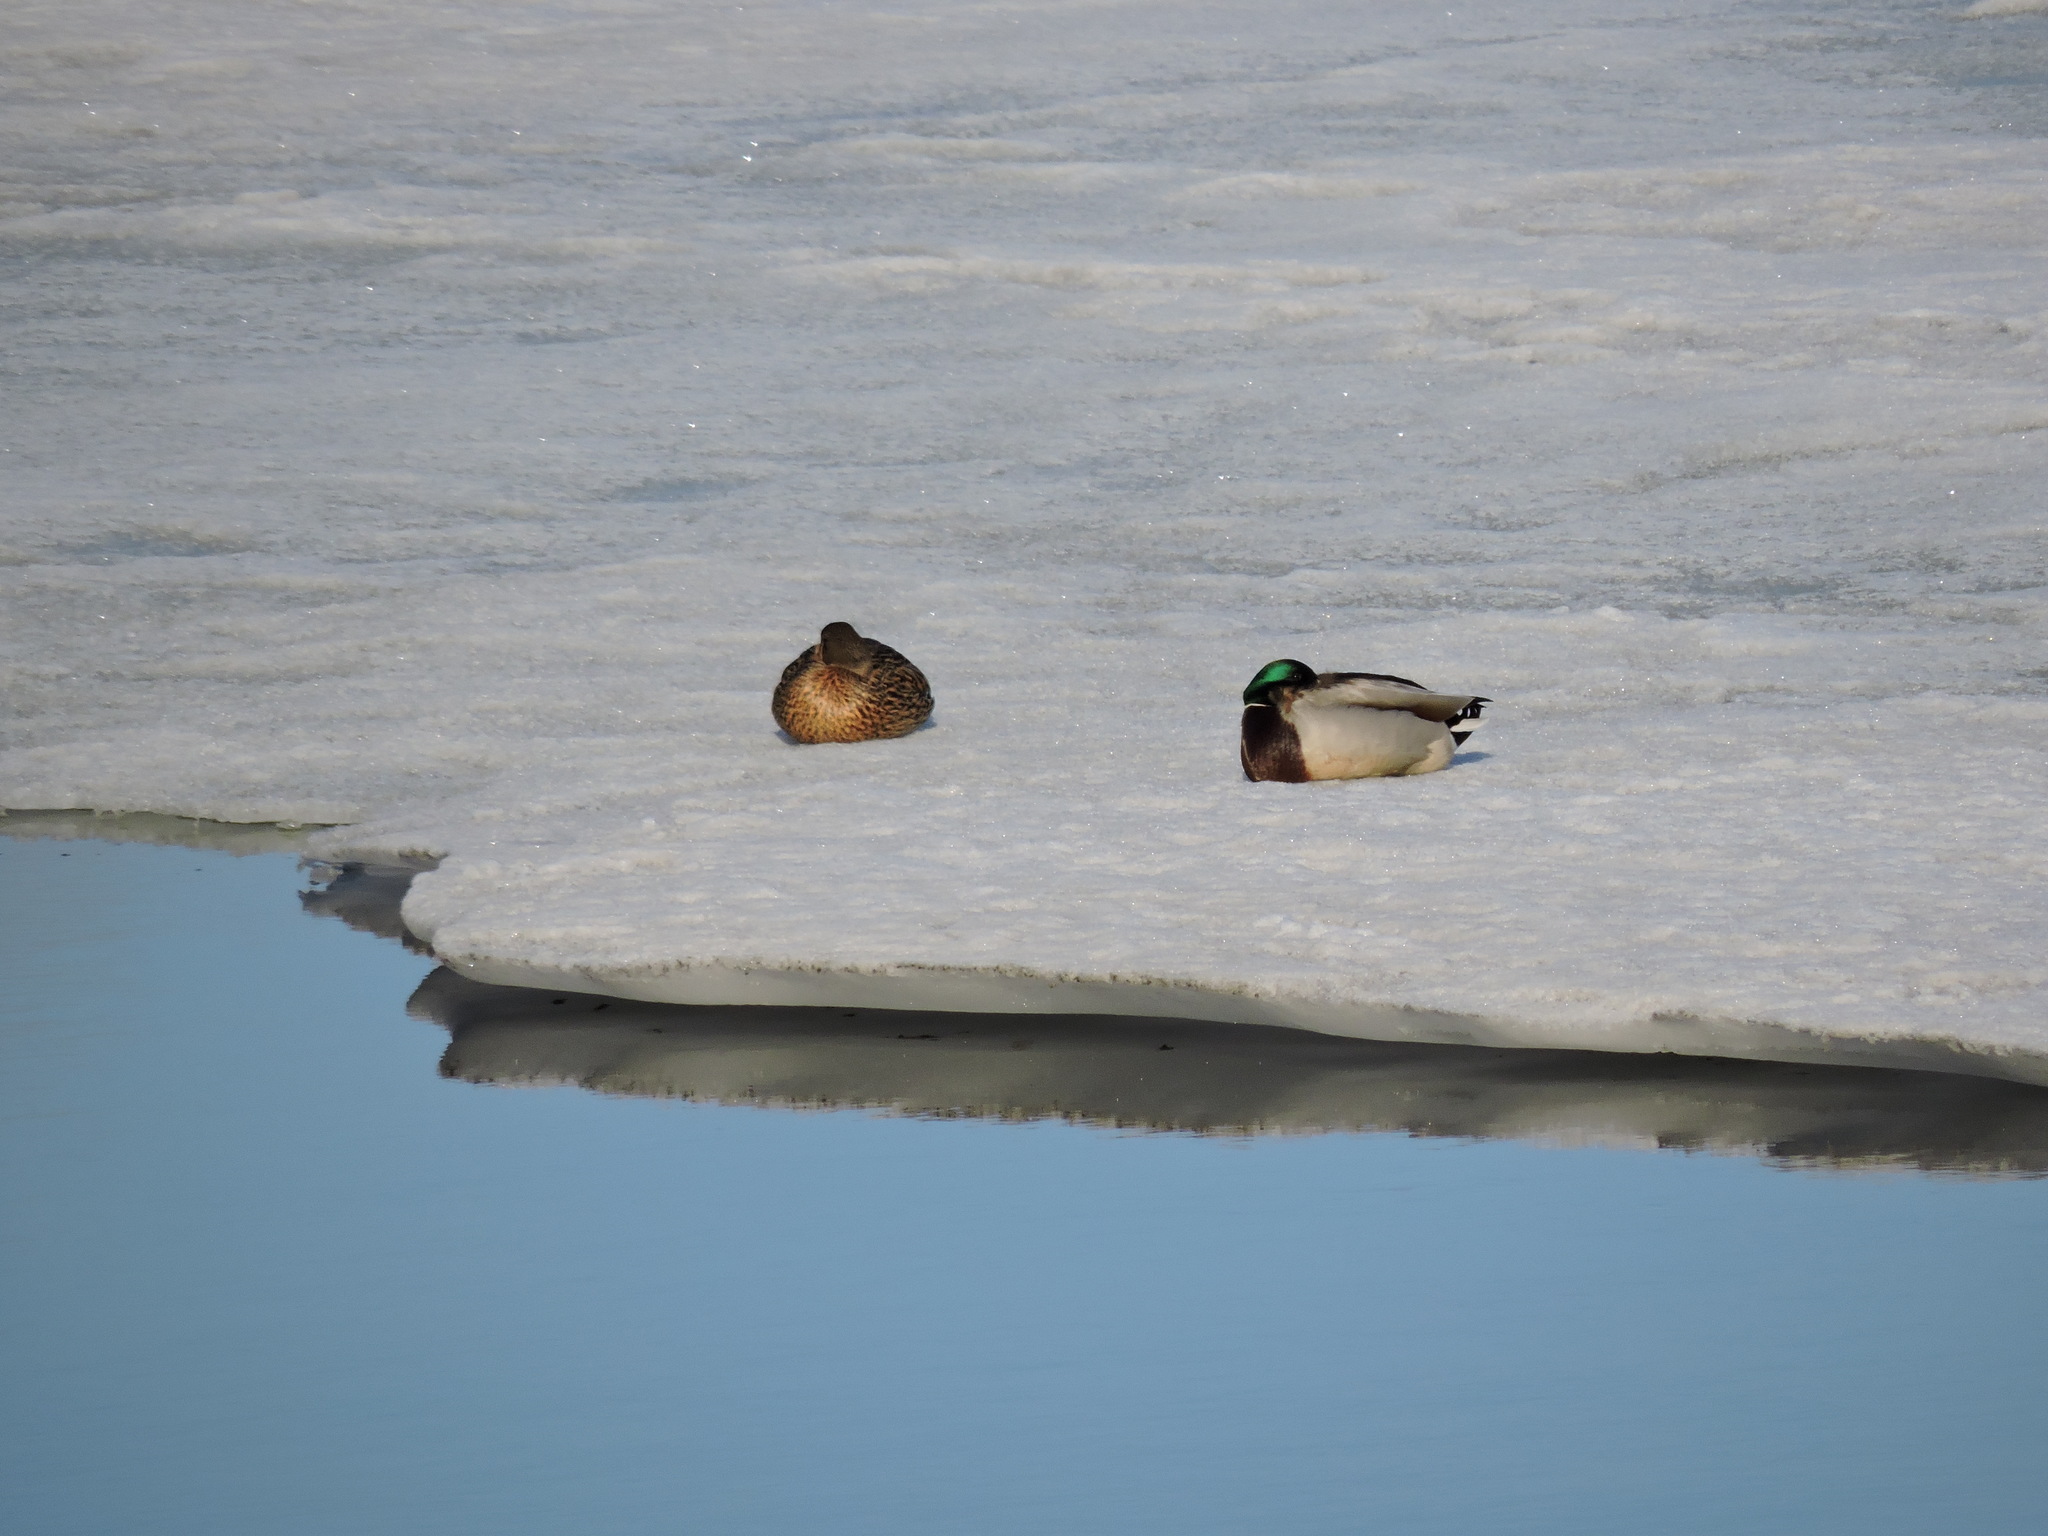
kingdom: Animalia
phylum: Chordata
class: Aves
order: Anseriformes
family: Anatidae
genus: Anas
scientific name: Anas platyrhynchos
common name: Mallard
